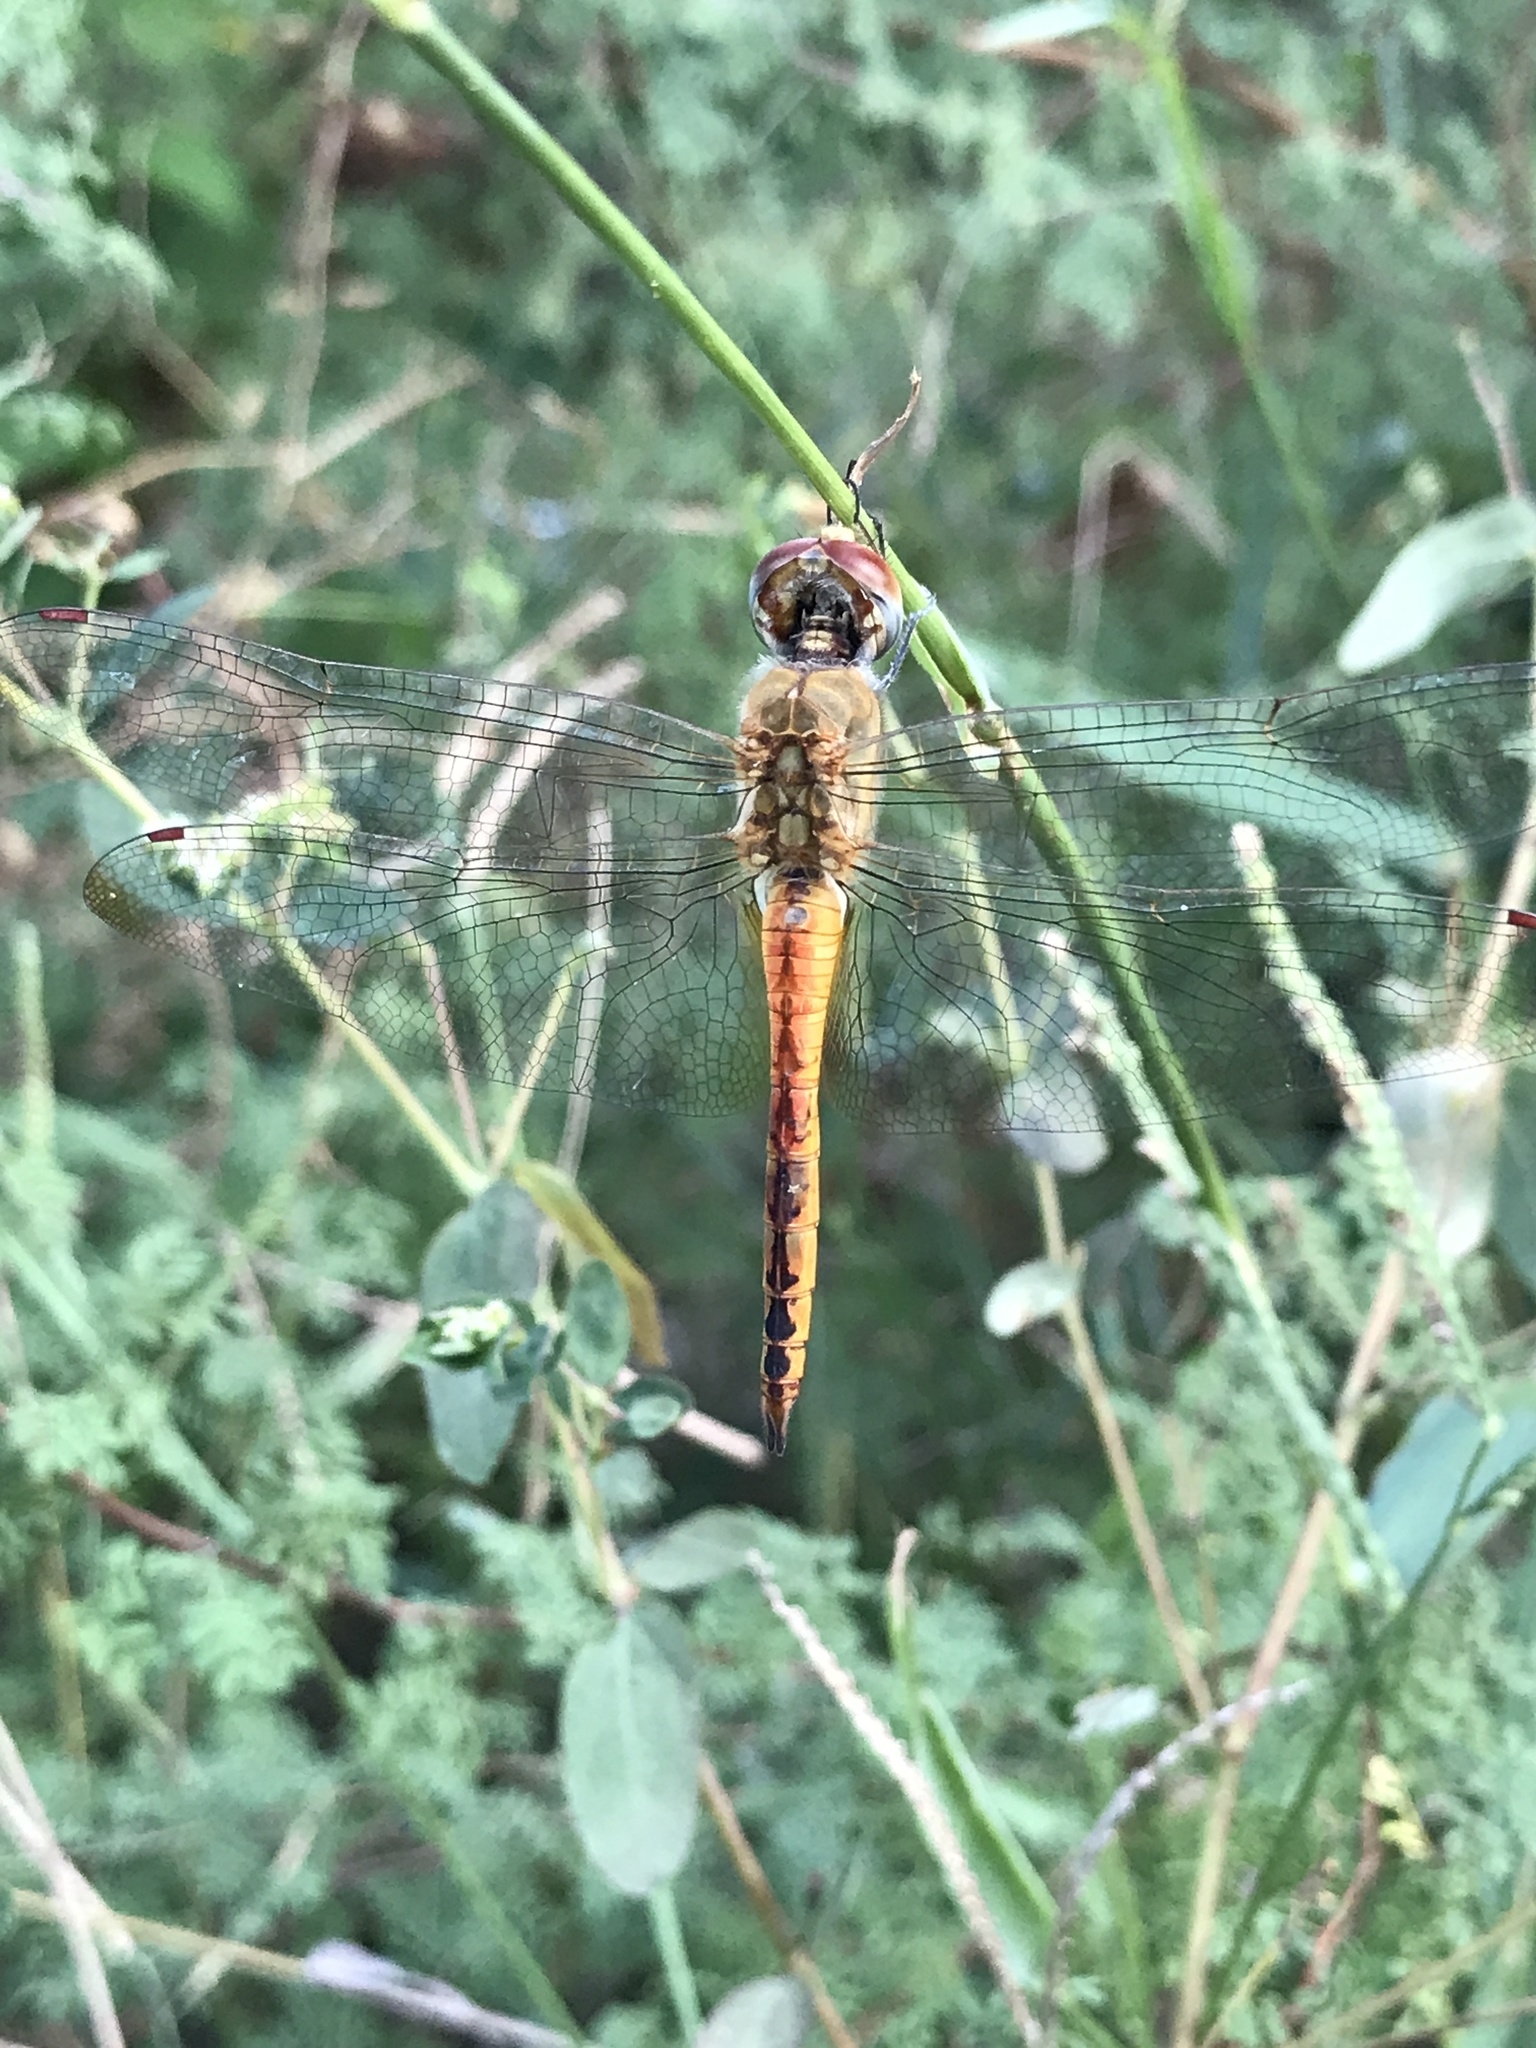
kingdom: Animalia
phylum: Arthropoda
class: Insecta
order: Odonata
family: Libellulidae
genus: Pantala
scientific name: Pantala flavescens
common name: Wandering glider
